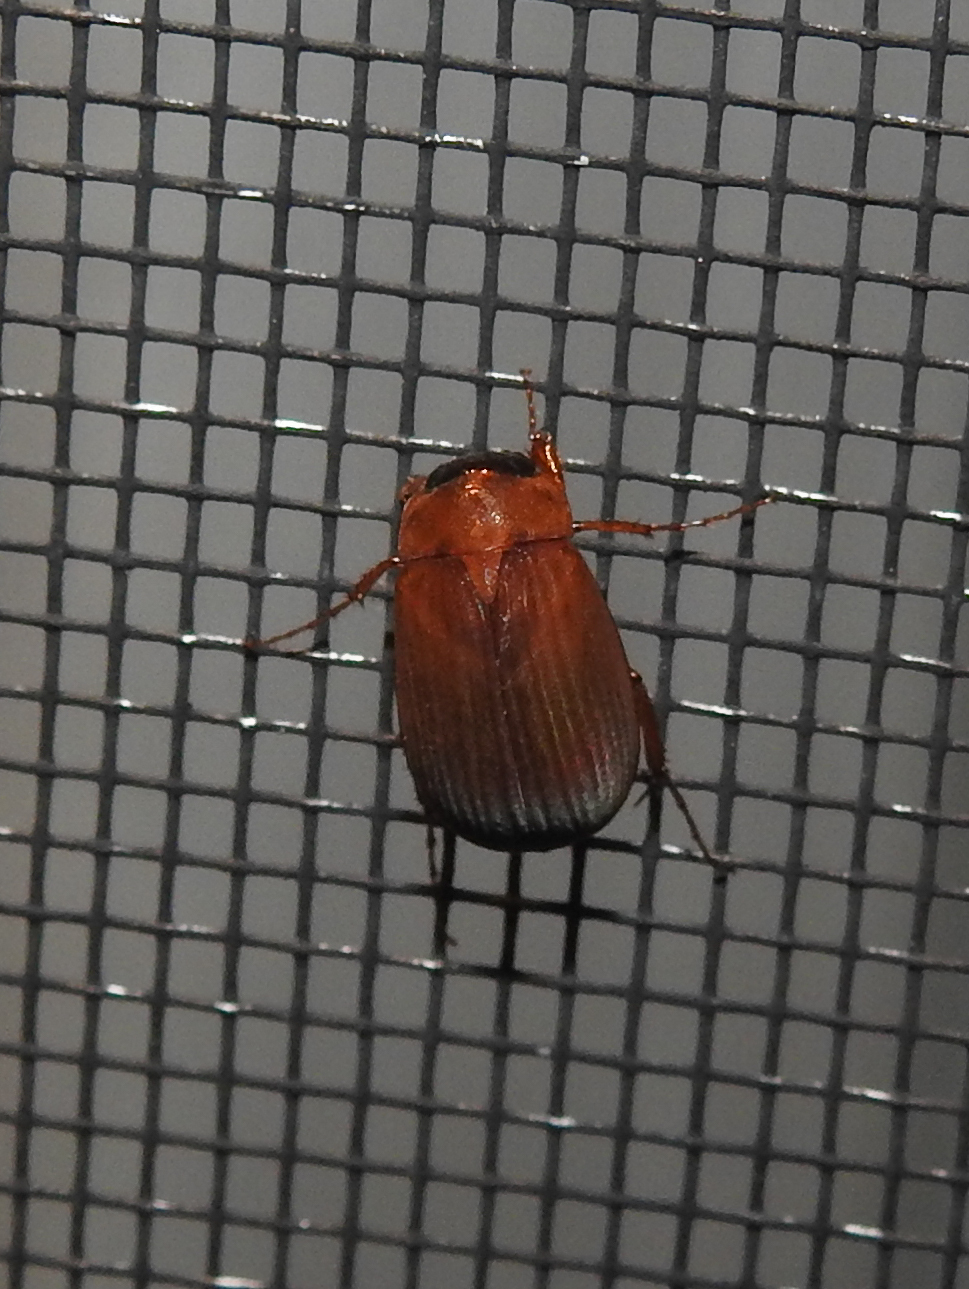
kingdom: Animalia
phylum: Arthropoda
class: Insecta
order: Coleoptera
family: Scarabaeidae
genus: Nipponoserica
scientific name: Nipponoserica peregrina
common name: Scarab beetle
